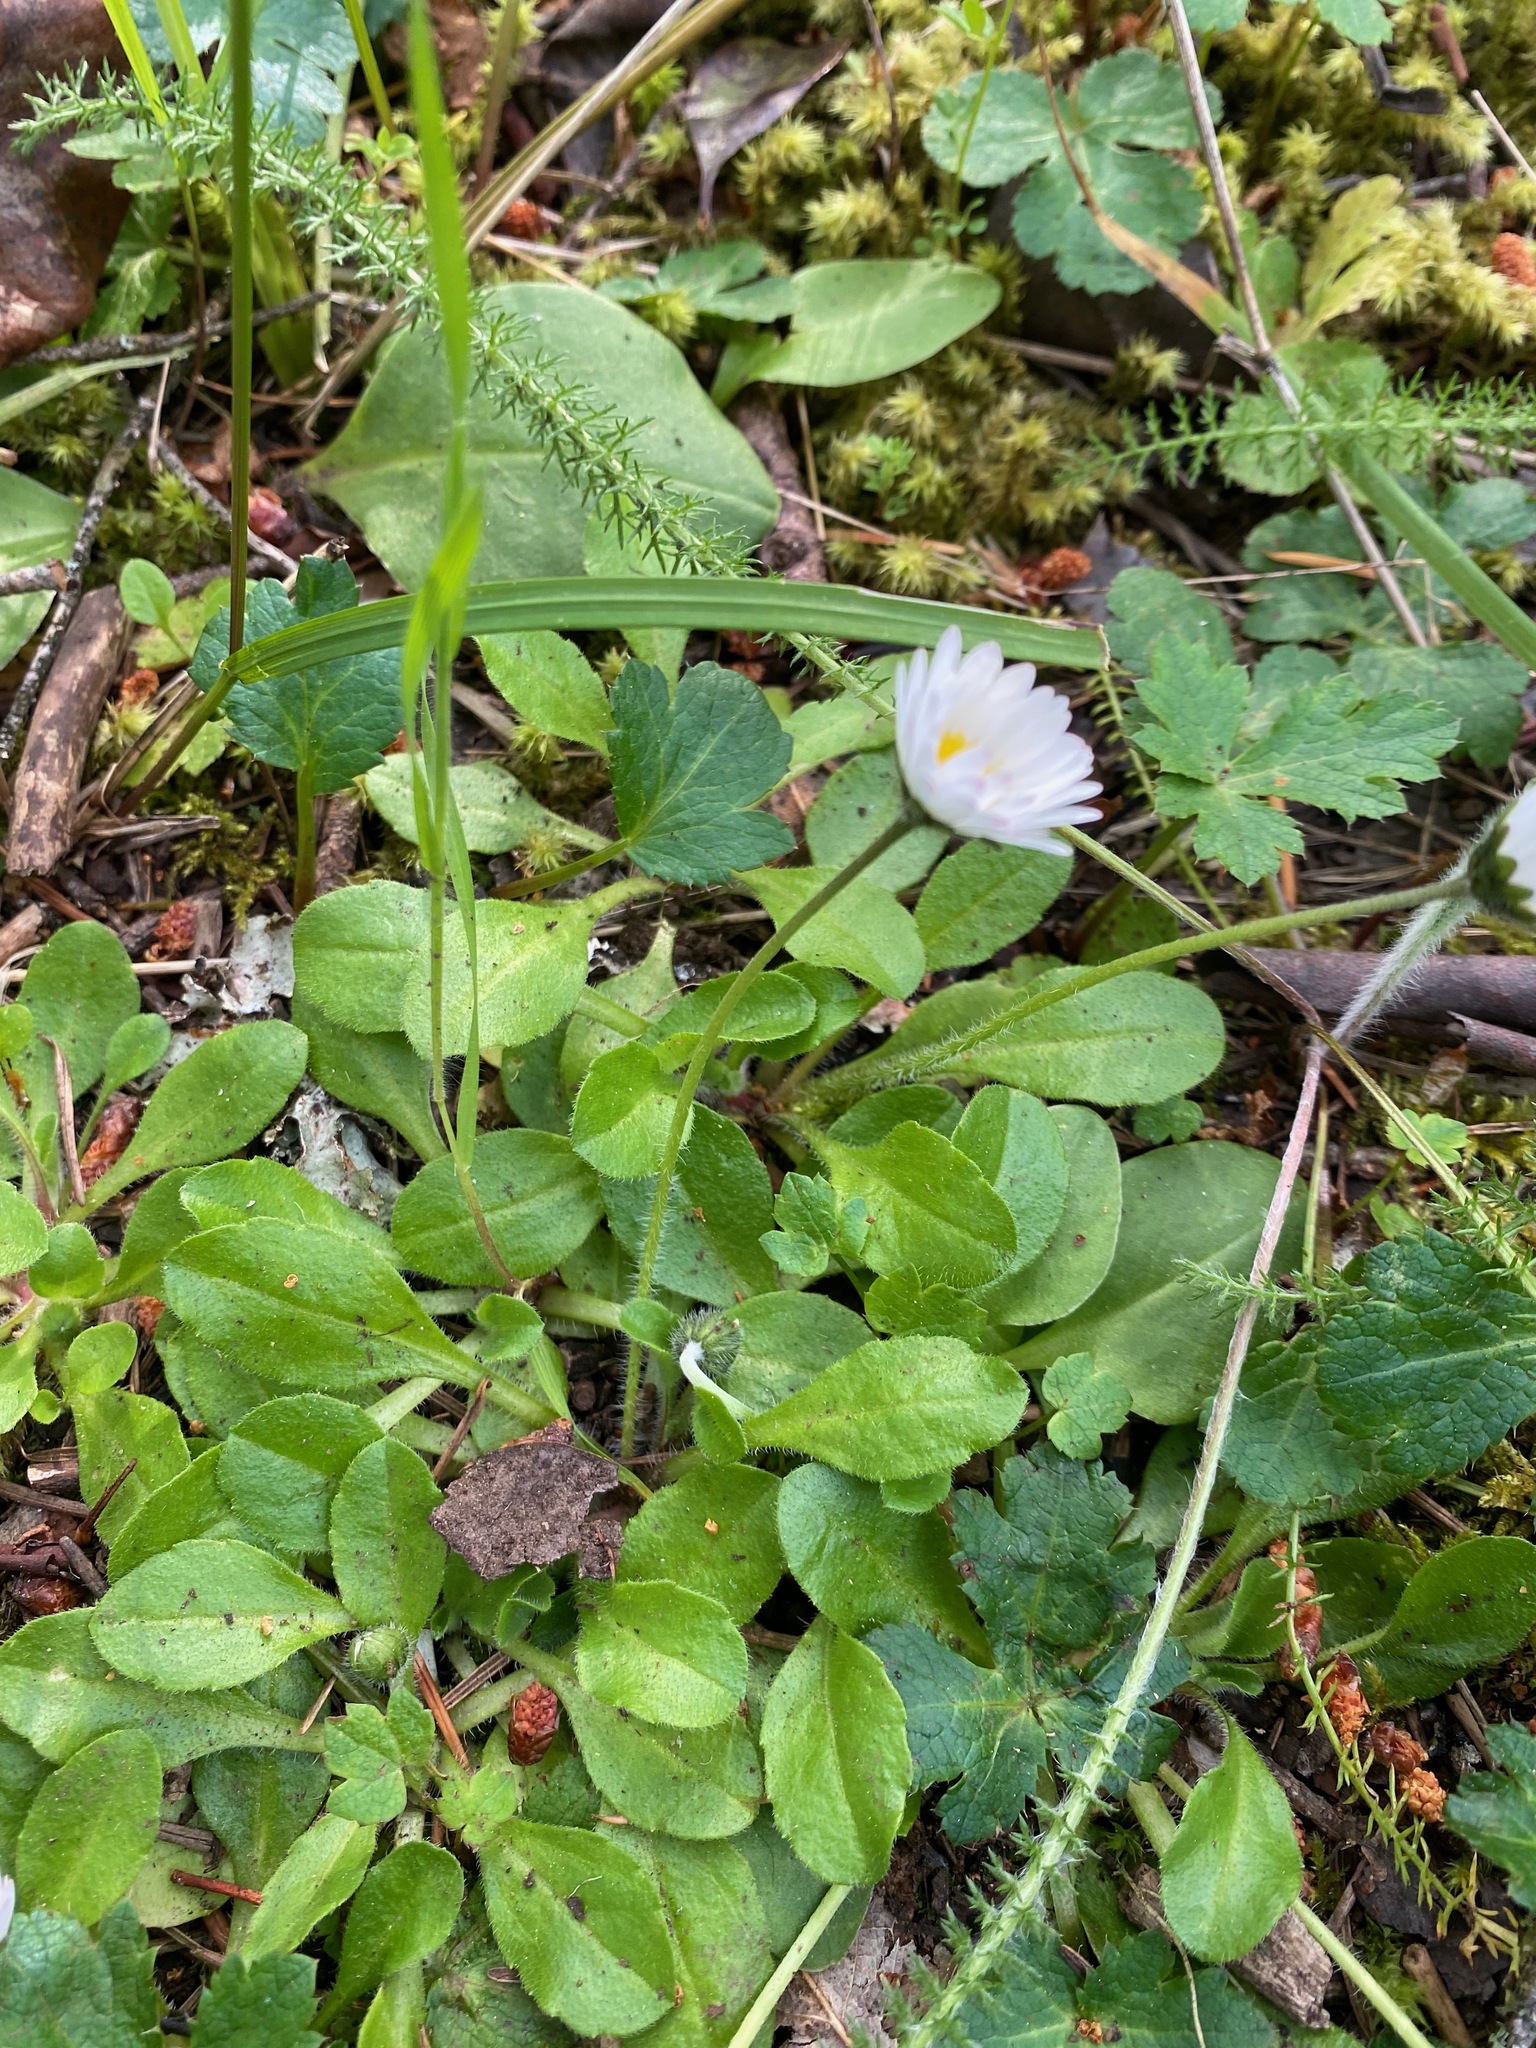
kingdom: Plantae
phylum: Tracheophyta
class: Magnoliopsida
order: Asterales
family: Asteraceae
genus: Bellis
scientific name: Bellis perennis
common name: Lawndaisy
